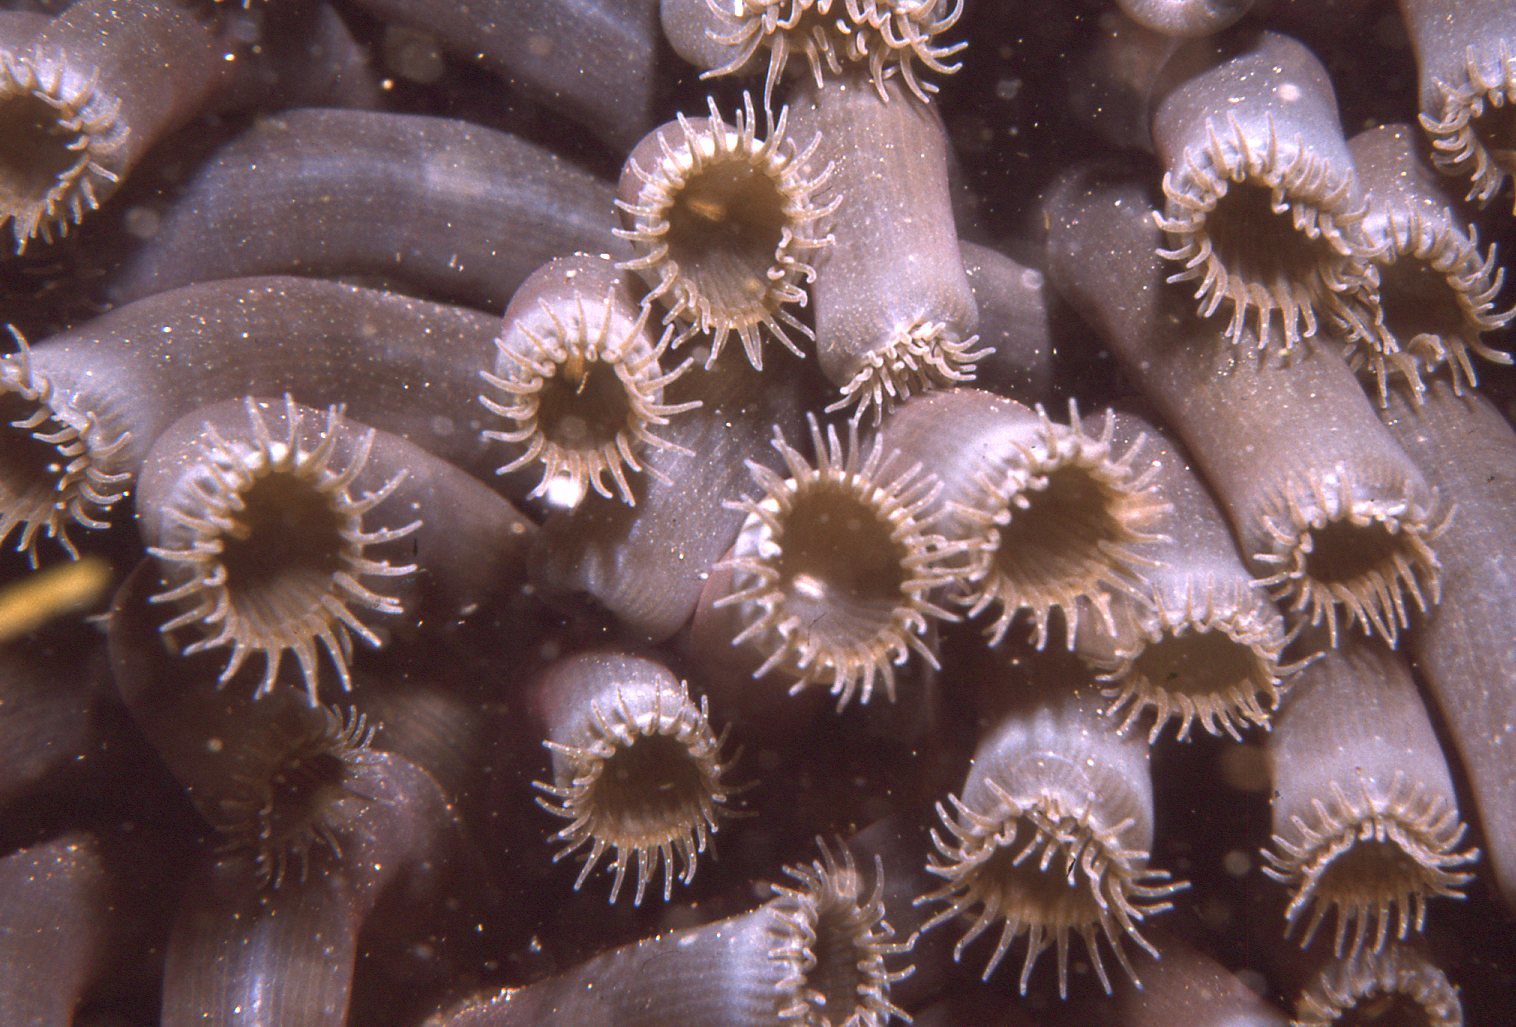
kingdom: Animalia
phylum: Cnidaria
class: Anthozoa
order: Zoantharia
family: Zoanthidae
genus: Zoanthus
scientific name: Zoanthus robustus
